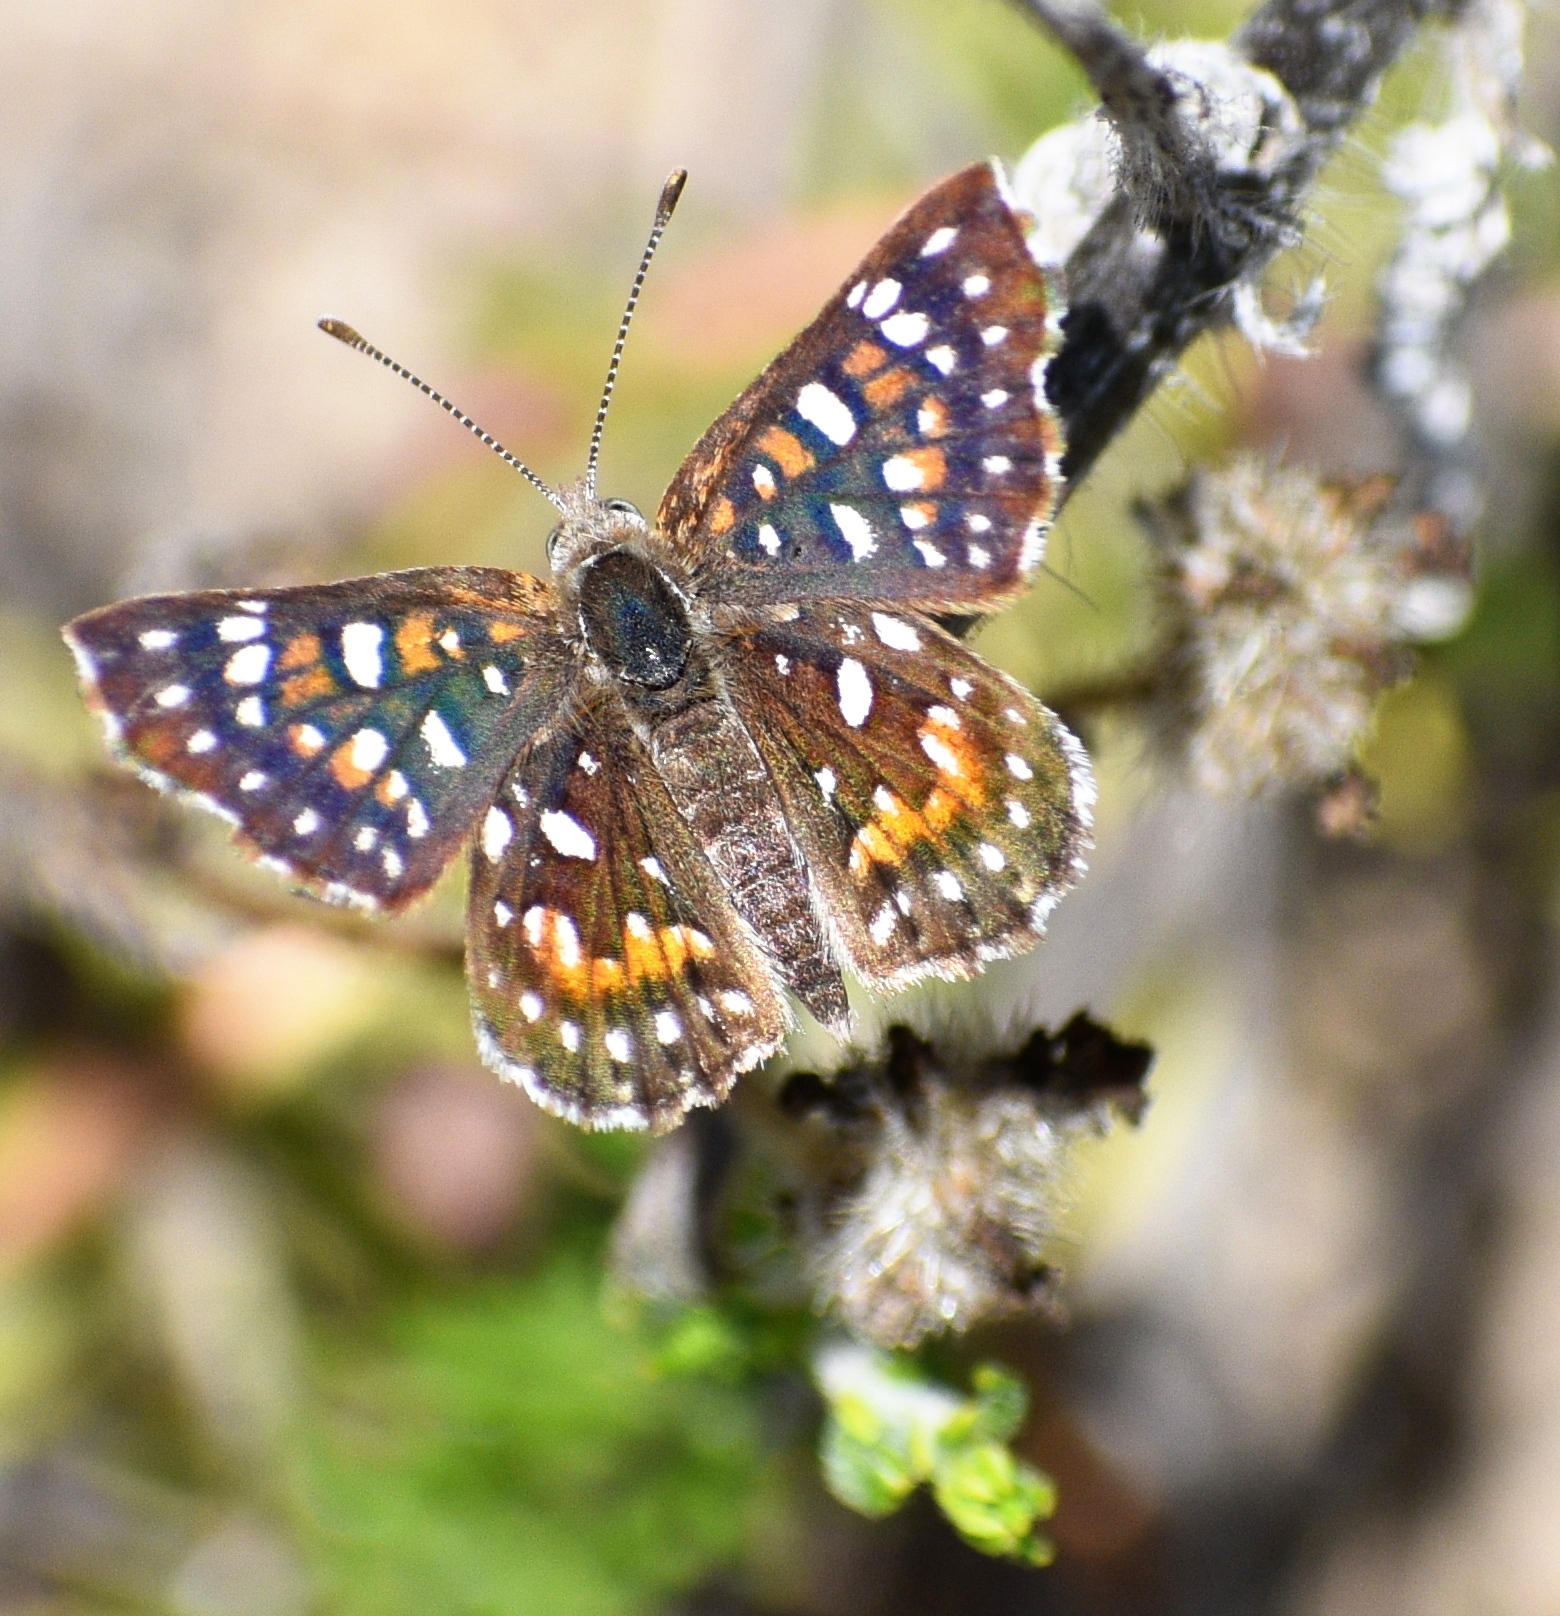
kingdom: Animalia
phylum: Arthropoda
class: Insecta
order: Lepidoptera
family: Riodinidae
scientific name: Riodinidae
